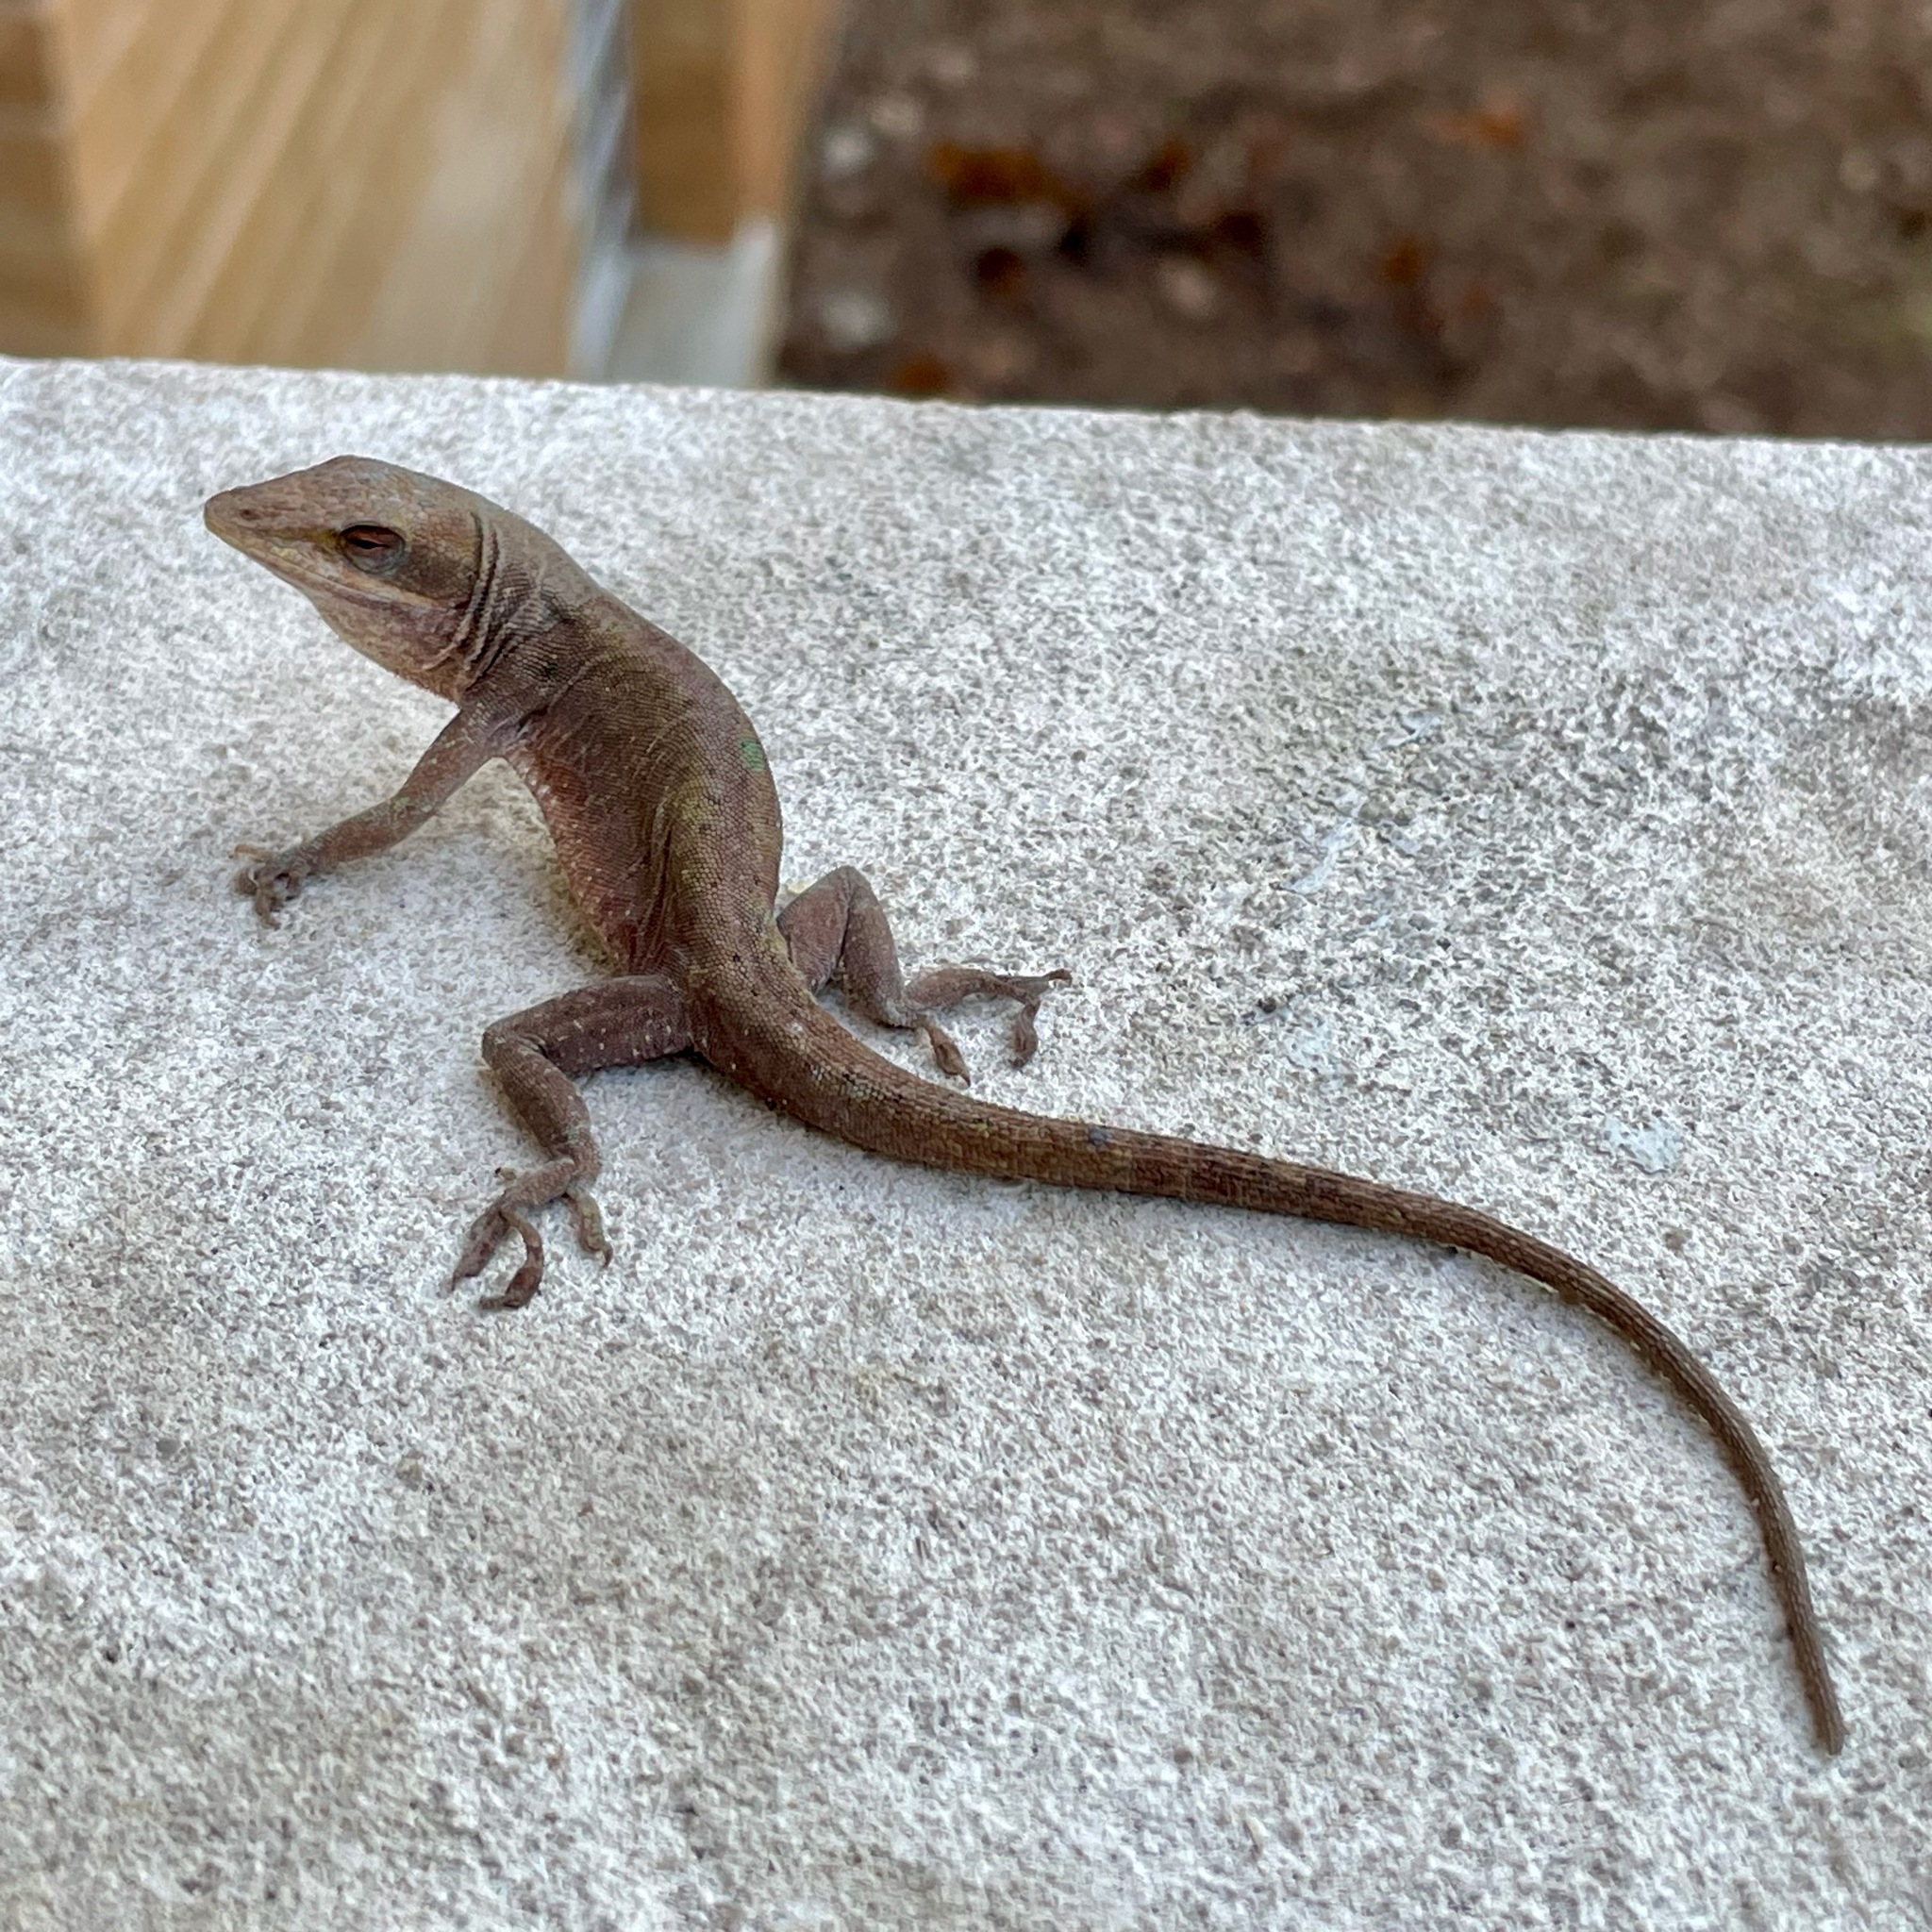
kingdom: Animalia
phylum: Chordata
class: Squamata
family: Dactyloidae
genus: Anolis
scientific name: Anolis carolinensis
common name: Green anole
